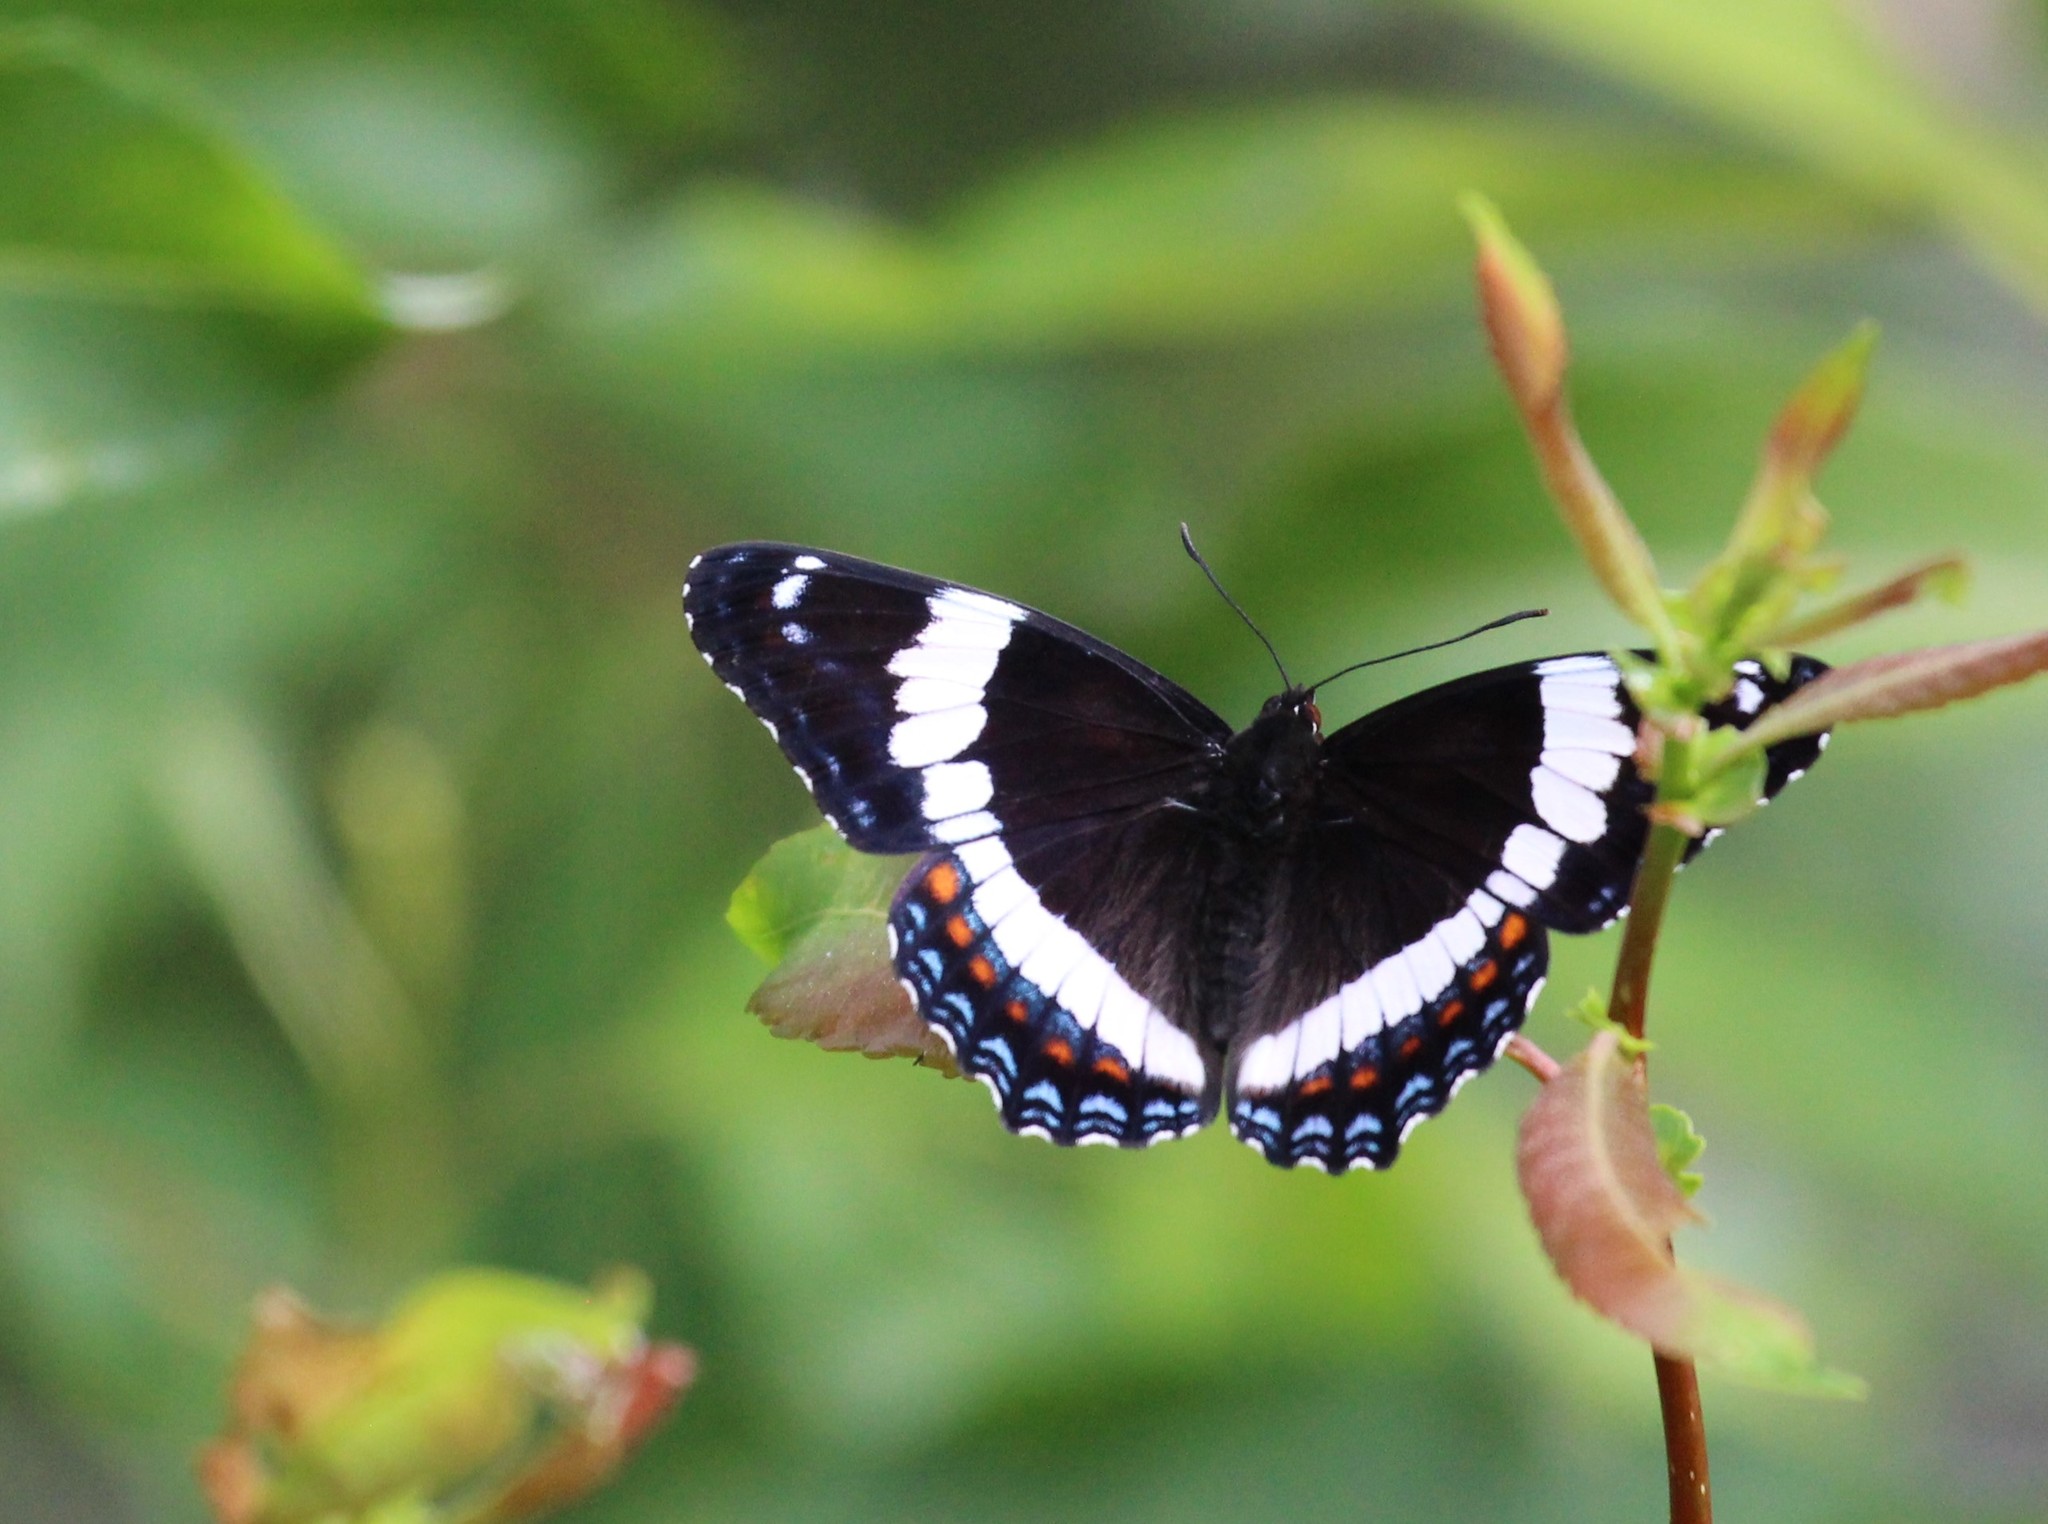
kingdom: Animalia
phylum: Arthropoda
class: Insecta
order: Lepidoptera
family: Nymphalidae
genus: Limenitis
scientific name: Limenitis arthemis
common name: Red-spotted admiral
